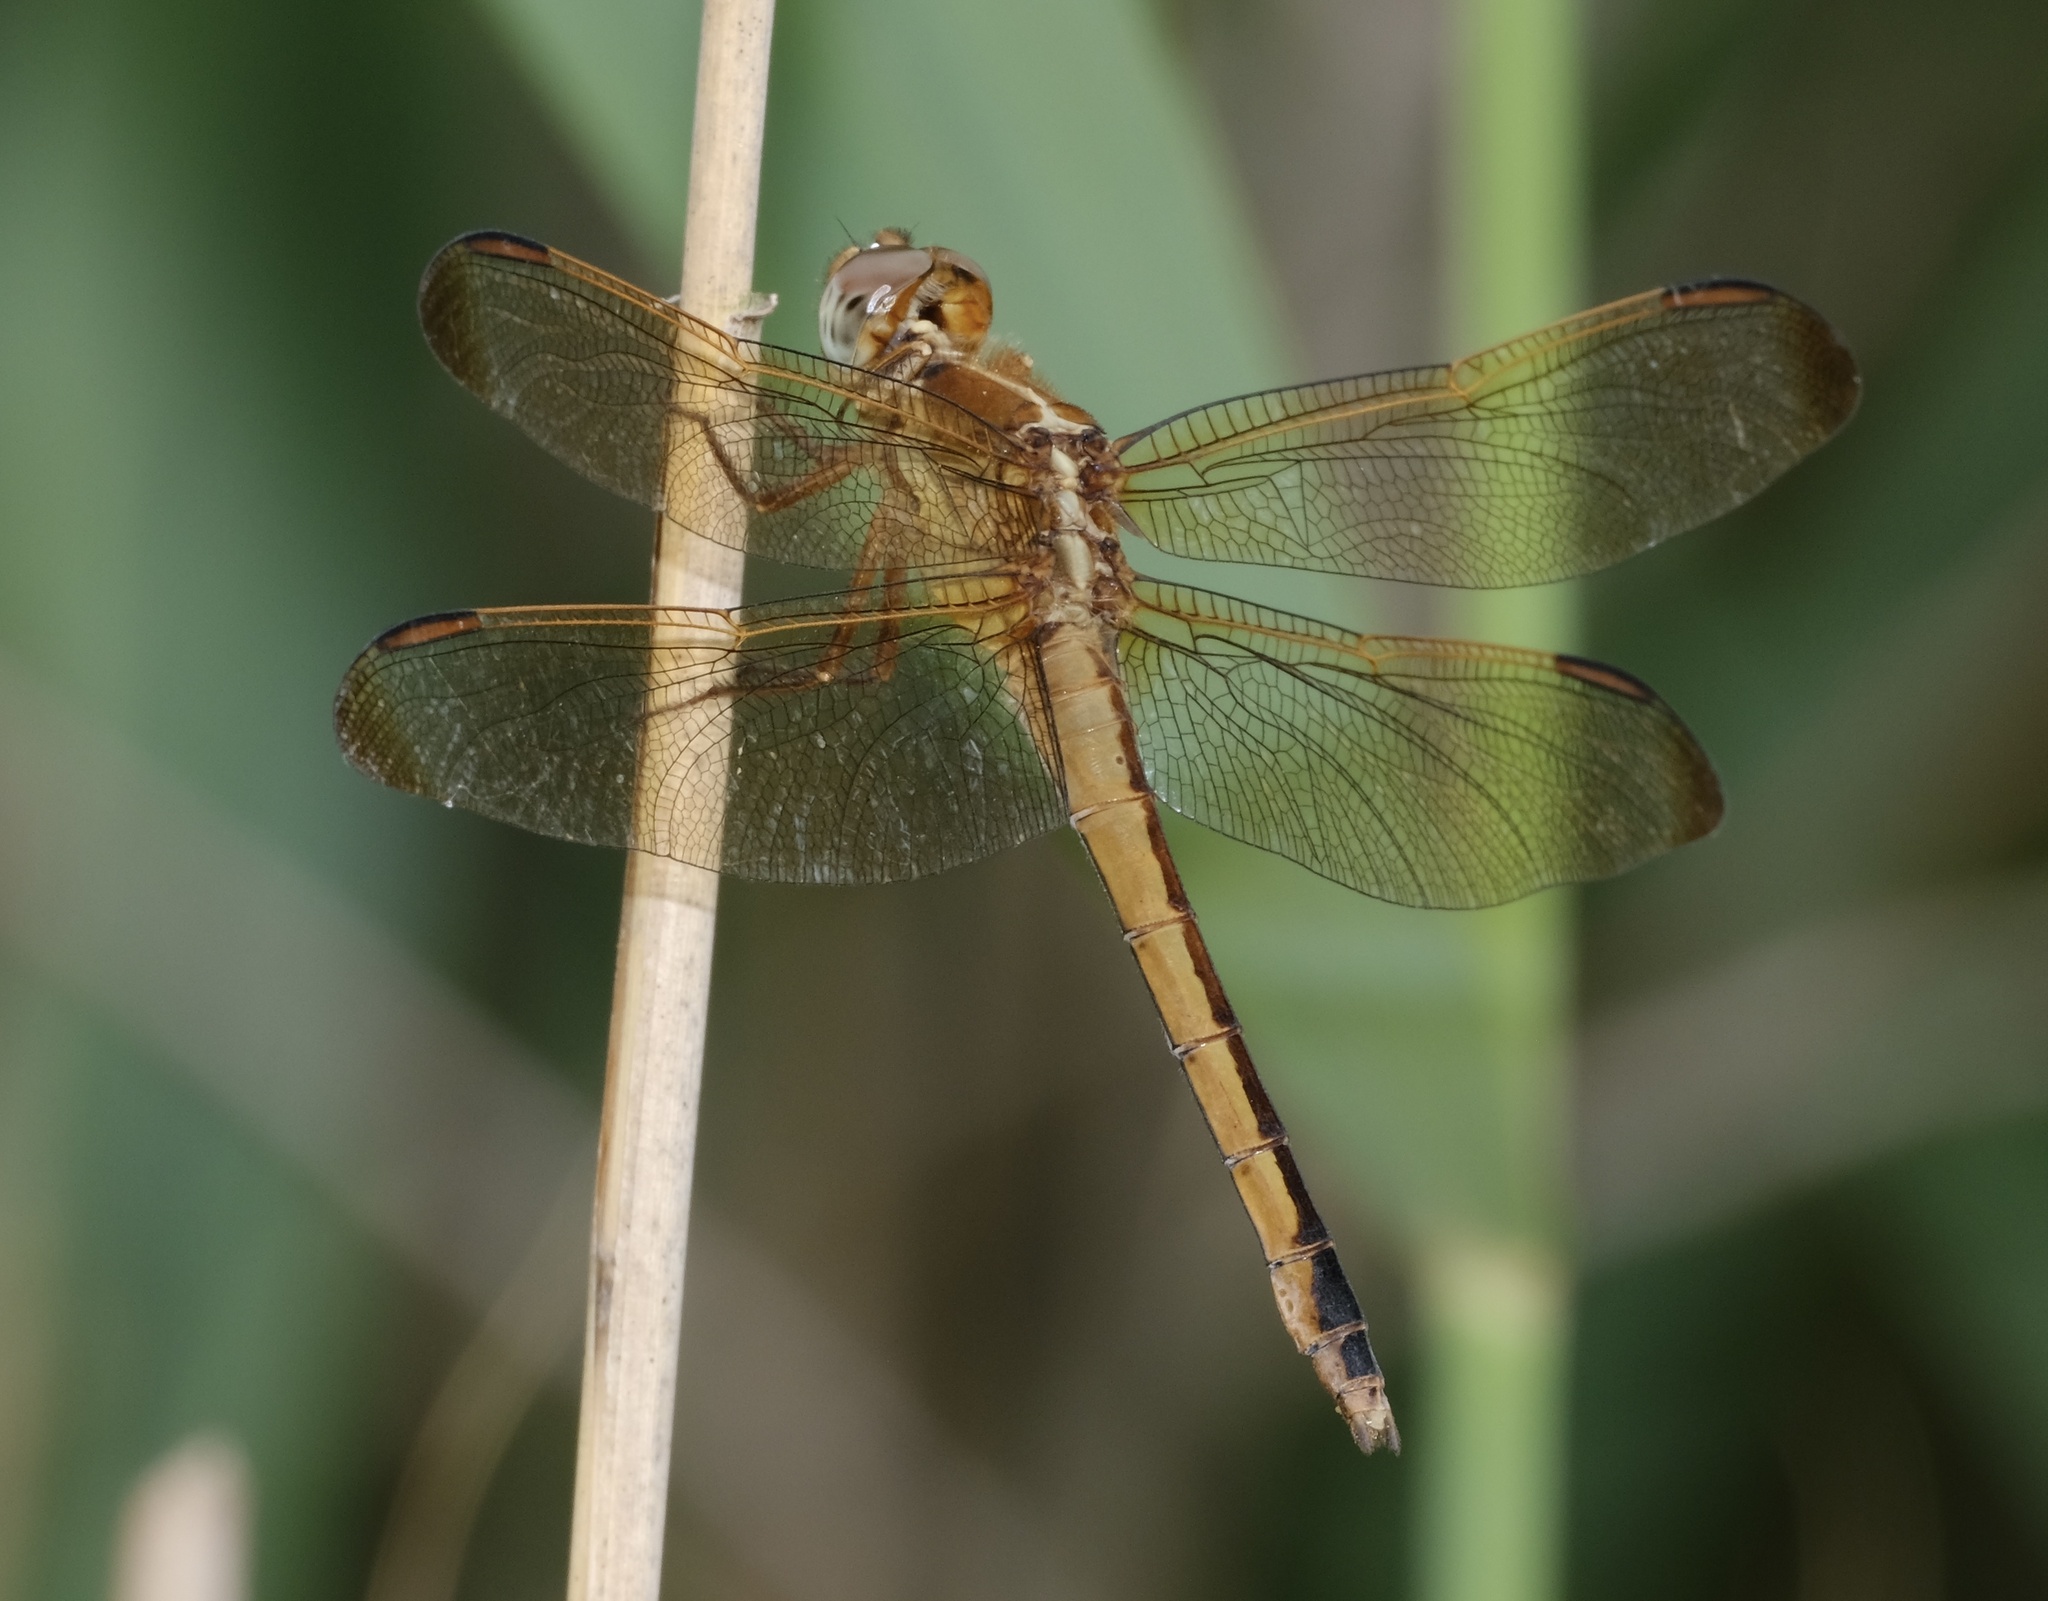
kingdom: Animalia
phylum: Arthropoda
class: Insecta
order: Odonata
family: Libellulidae
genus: Libellula
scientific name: Libellula needhami
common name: Needham's skimmer
